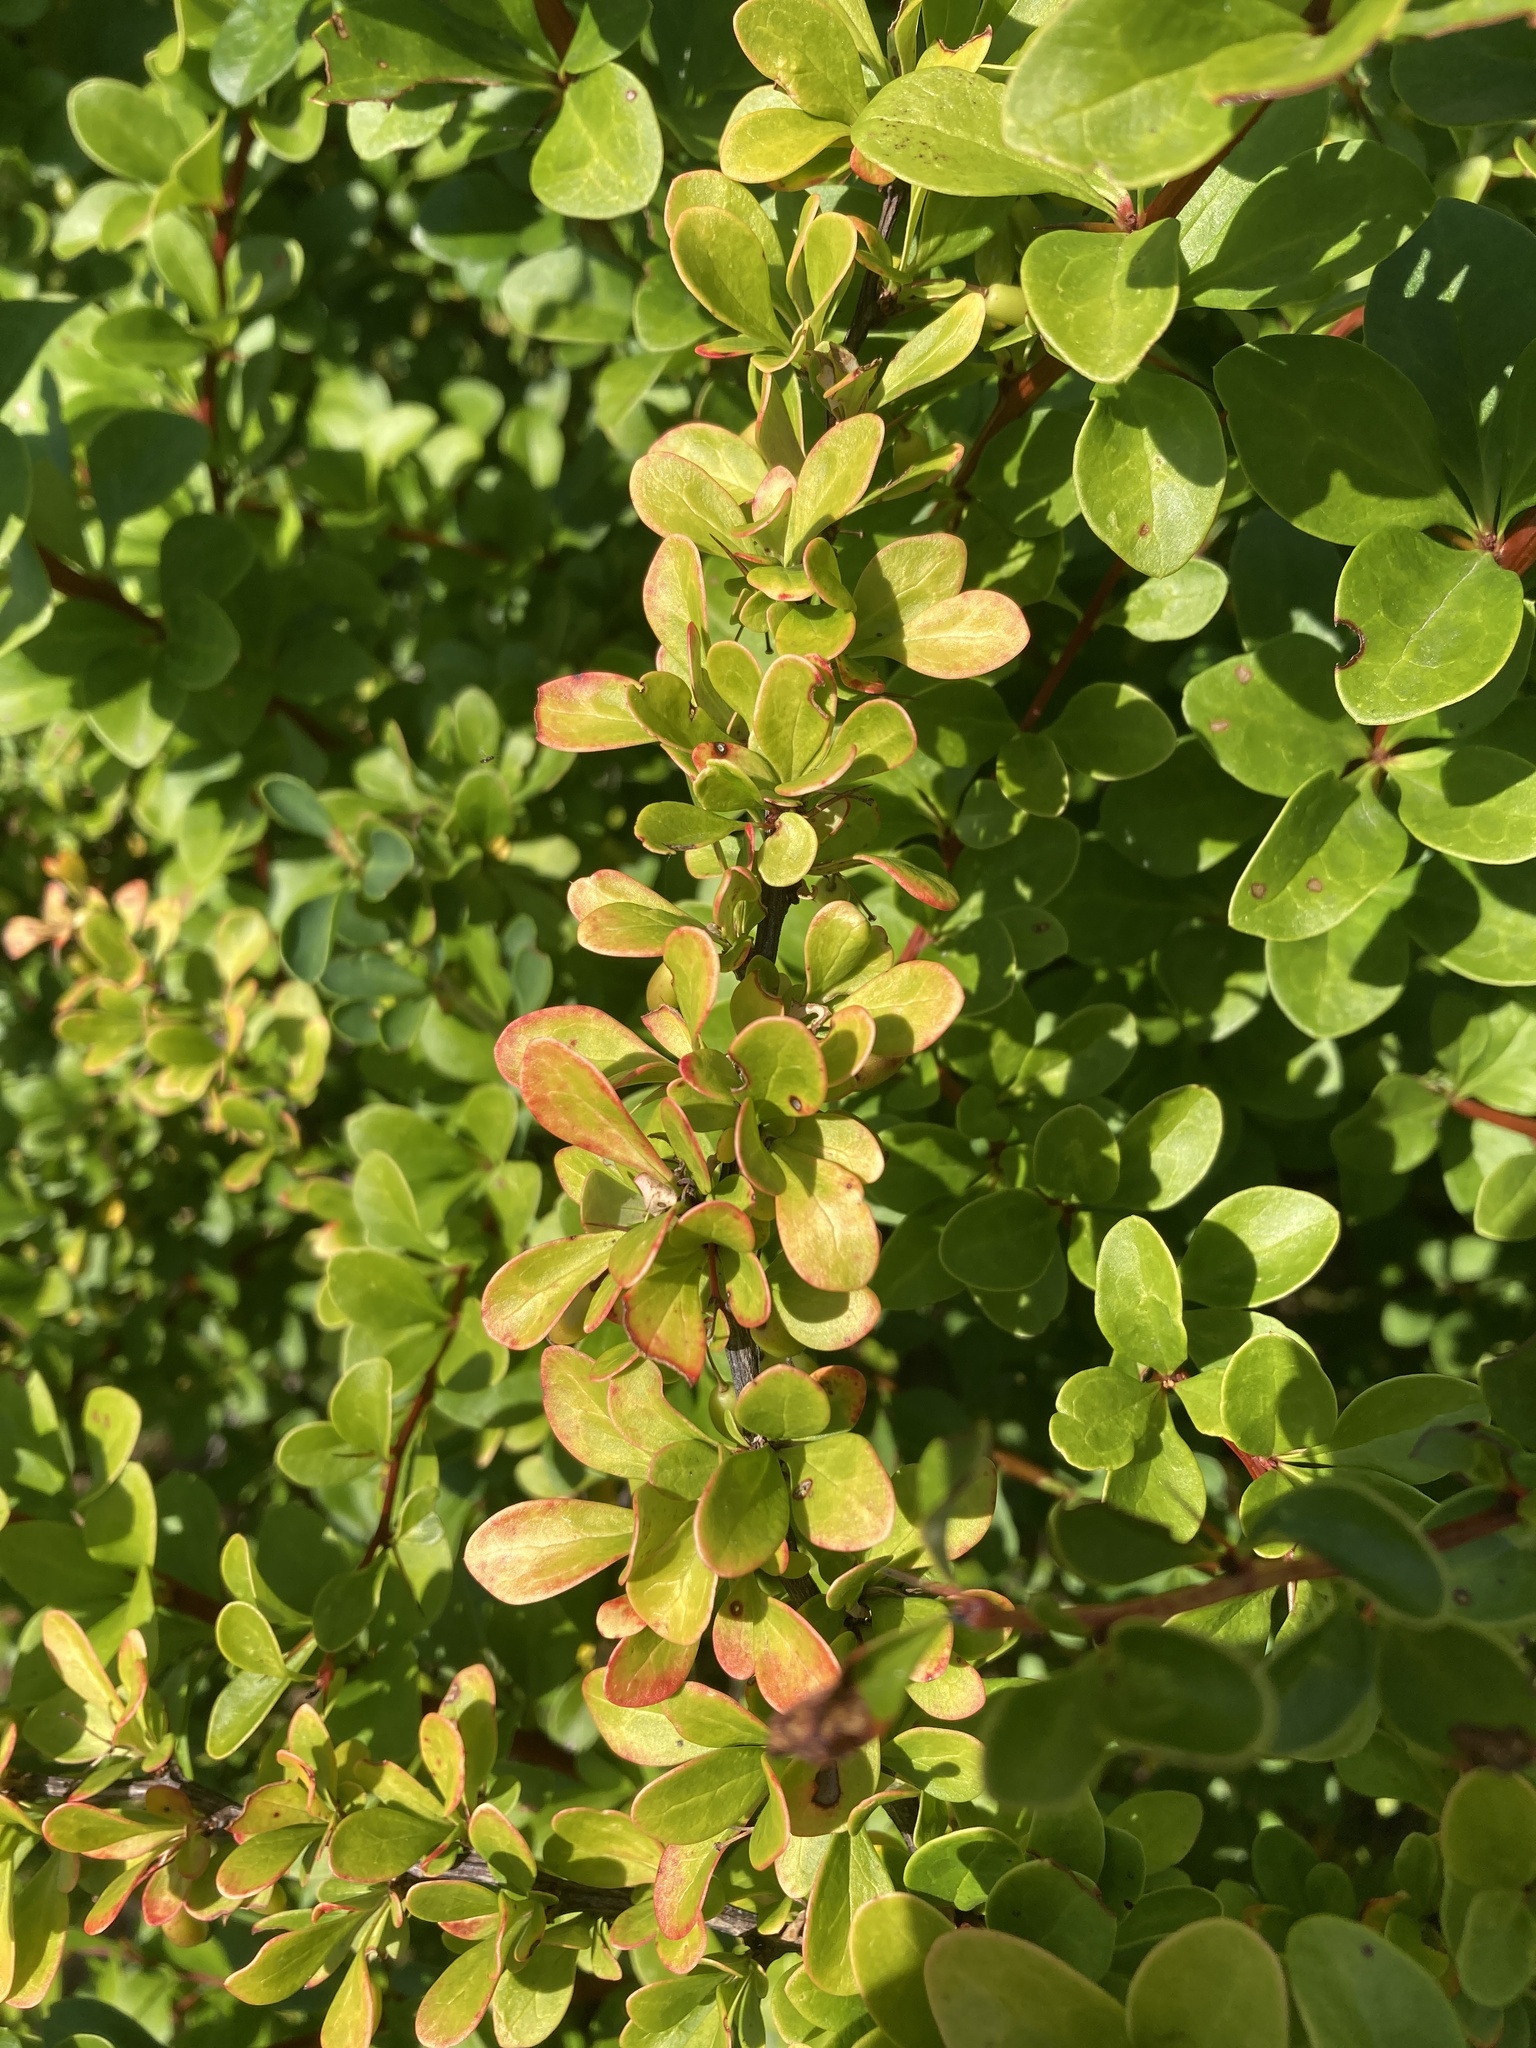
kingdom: Plantae
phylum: Tracheophyta
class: Magnoliopsida
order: Ranunculales
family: Berberidaceae
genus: Berberis
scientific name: Berberis thunbergii
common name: Japanese barberry
